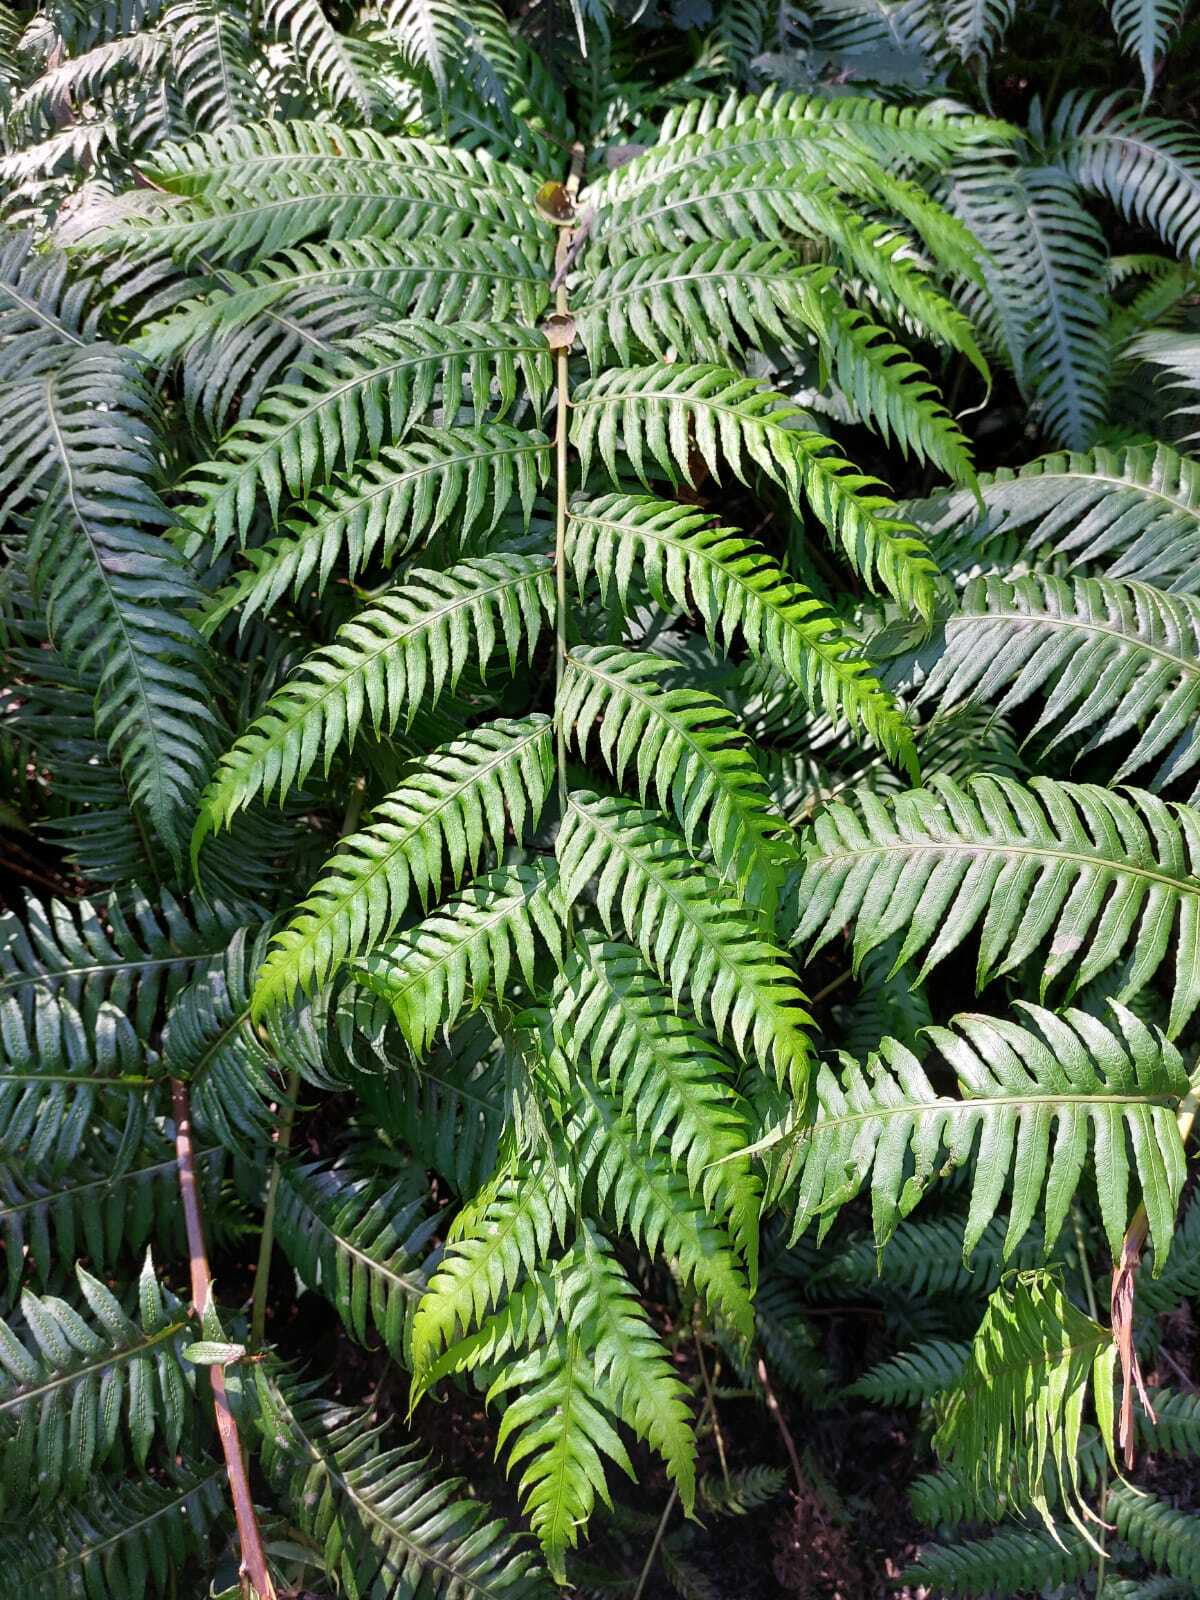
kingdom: Plantae
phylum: Tracheophyta
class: Polypodiopsida
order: Polypodiales
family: Blechnaceae
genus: Woodwardia
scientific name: Woodwardia radicans
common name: Rooting chainfern
